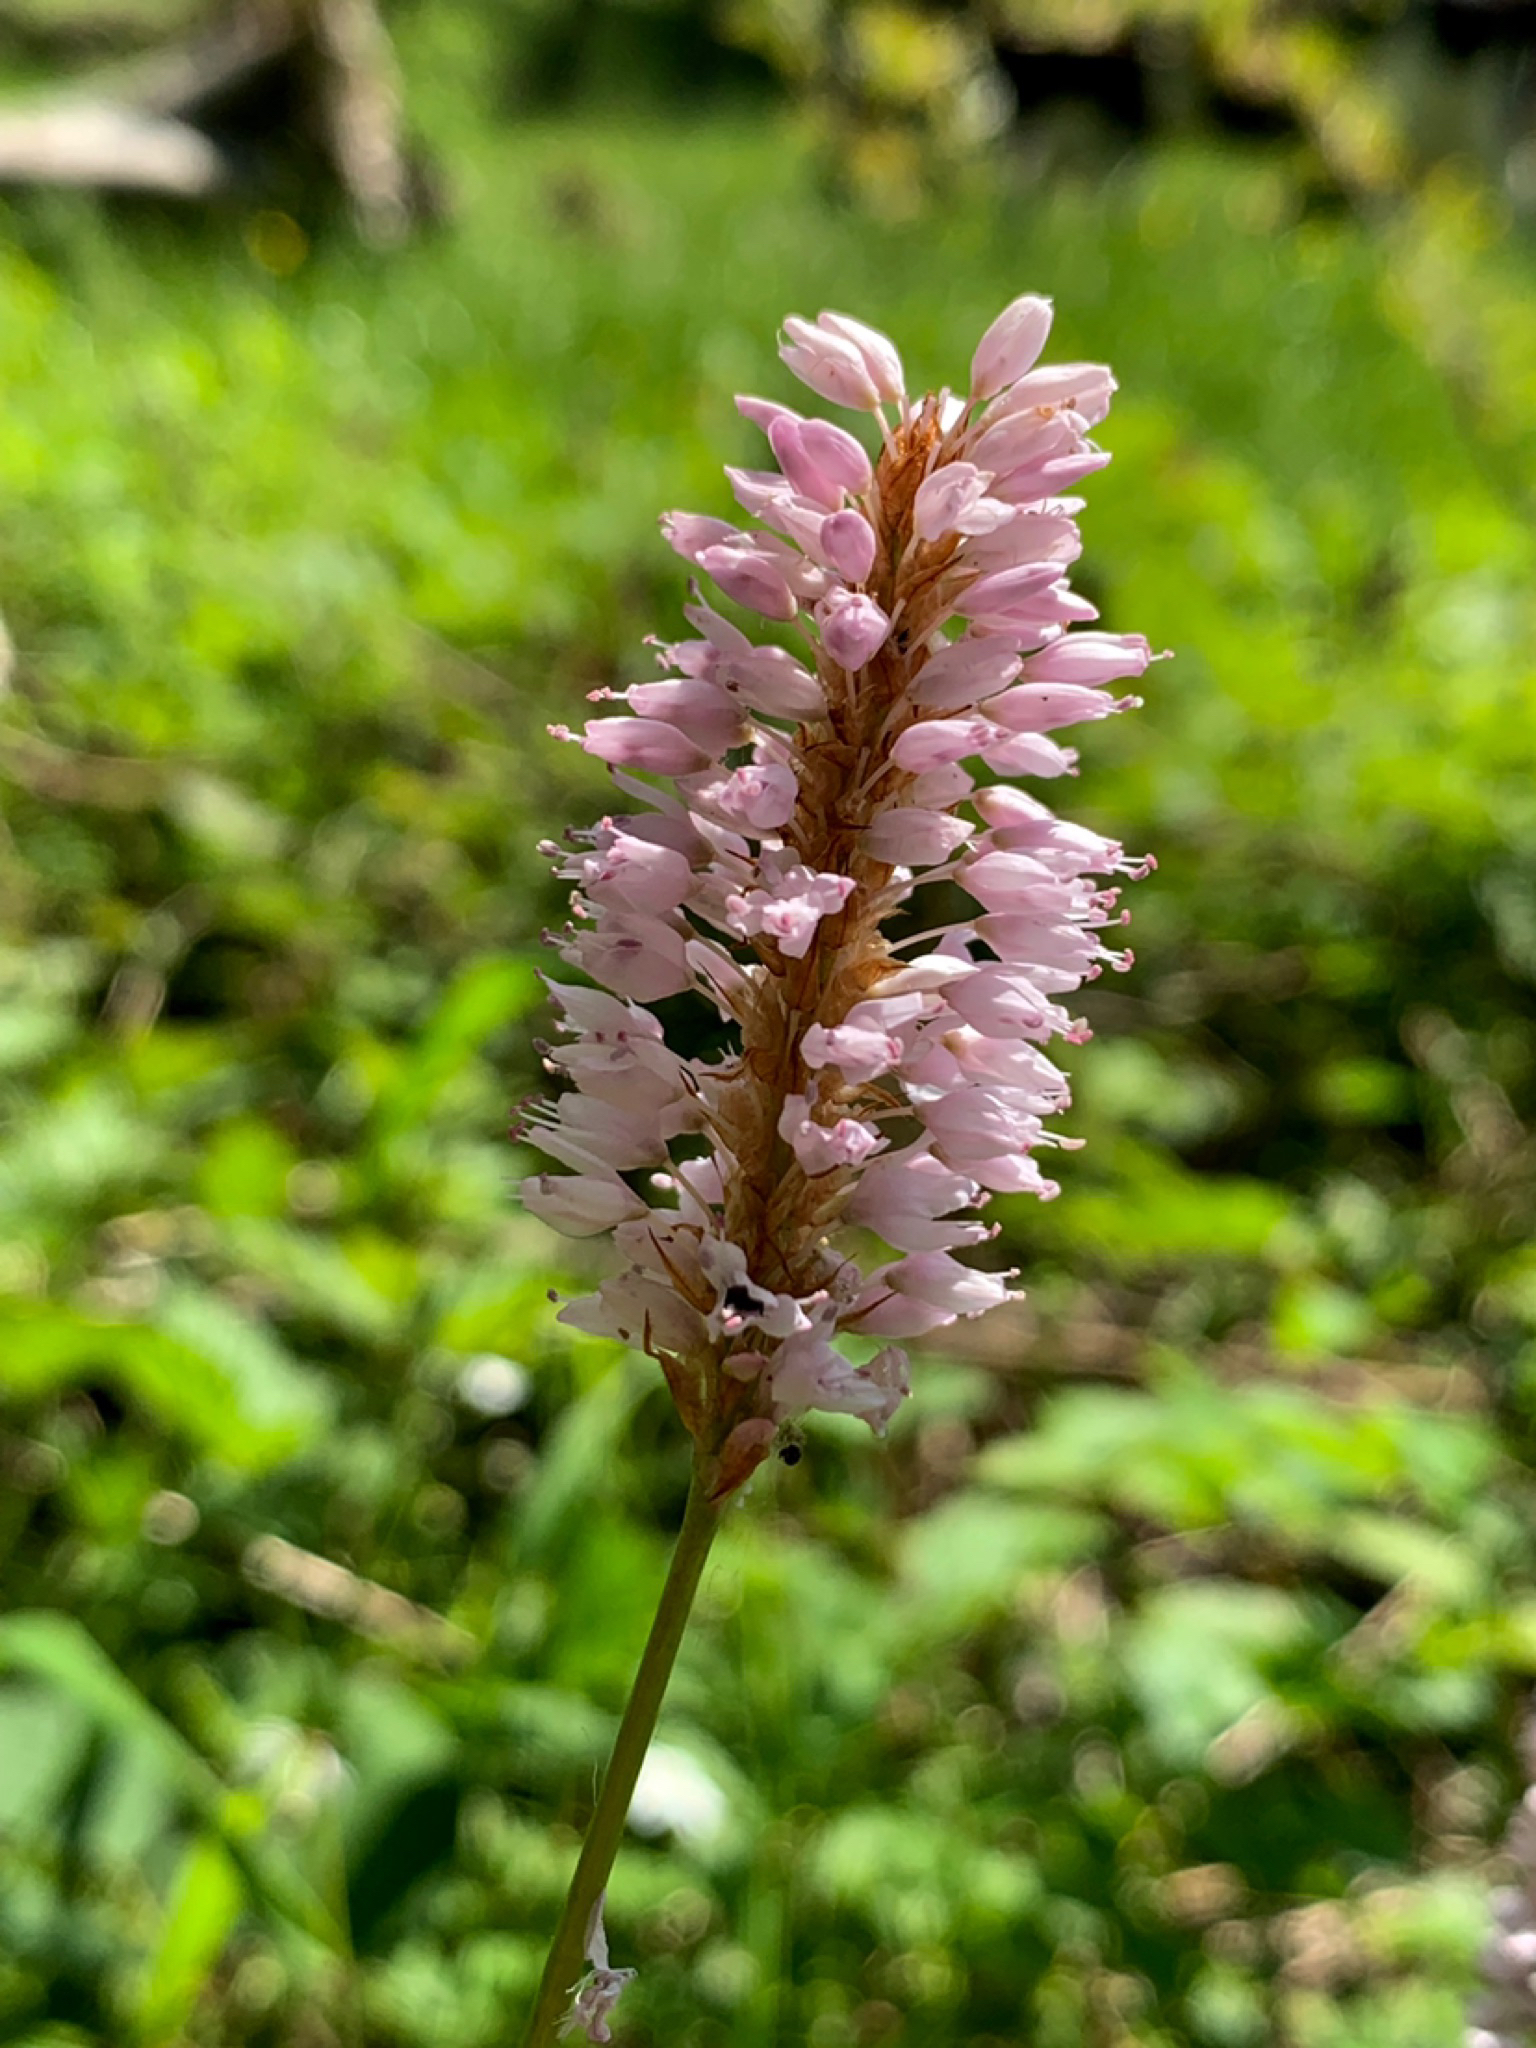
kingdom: Plantae
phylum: Tracheophyta
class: Magnoliopsida
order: Caryophyllales
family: Polygonaceae
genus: Bistorta
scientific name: Bistorta officinalis
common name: Common bistort
